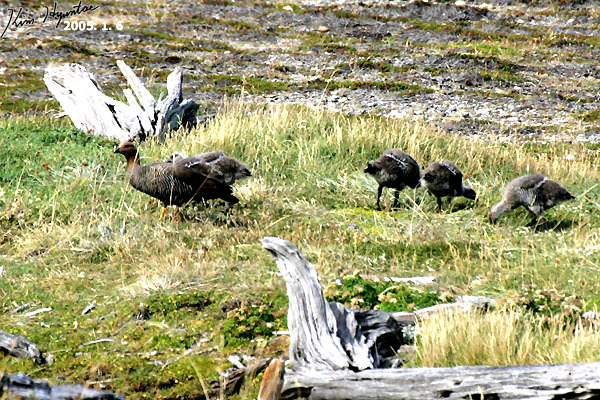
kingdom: Animalia
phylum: Chordata
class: Aves
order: Anseriformes
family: Anatidae
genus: Chloephaga
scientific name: Chloephaga picta
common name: Upland goose
